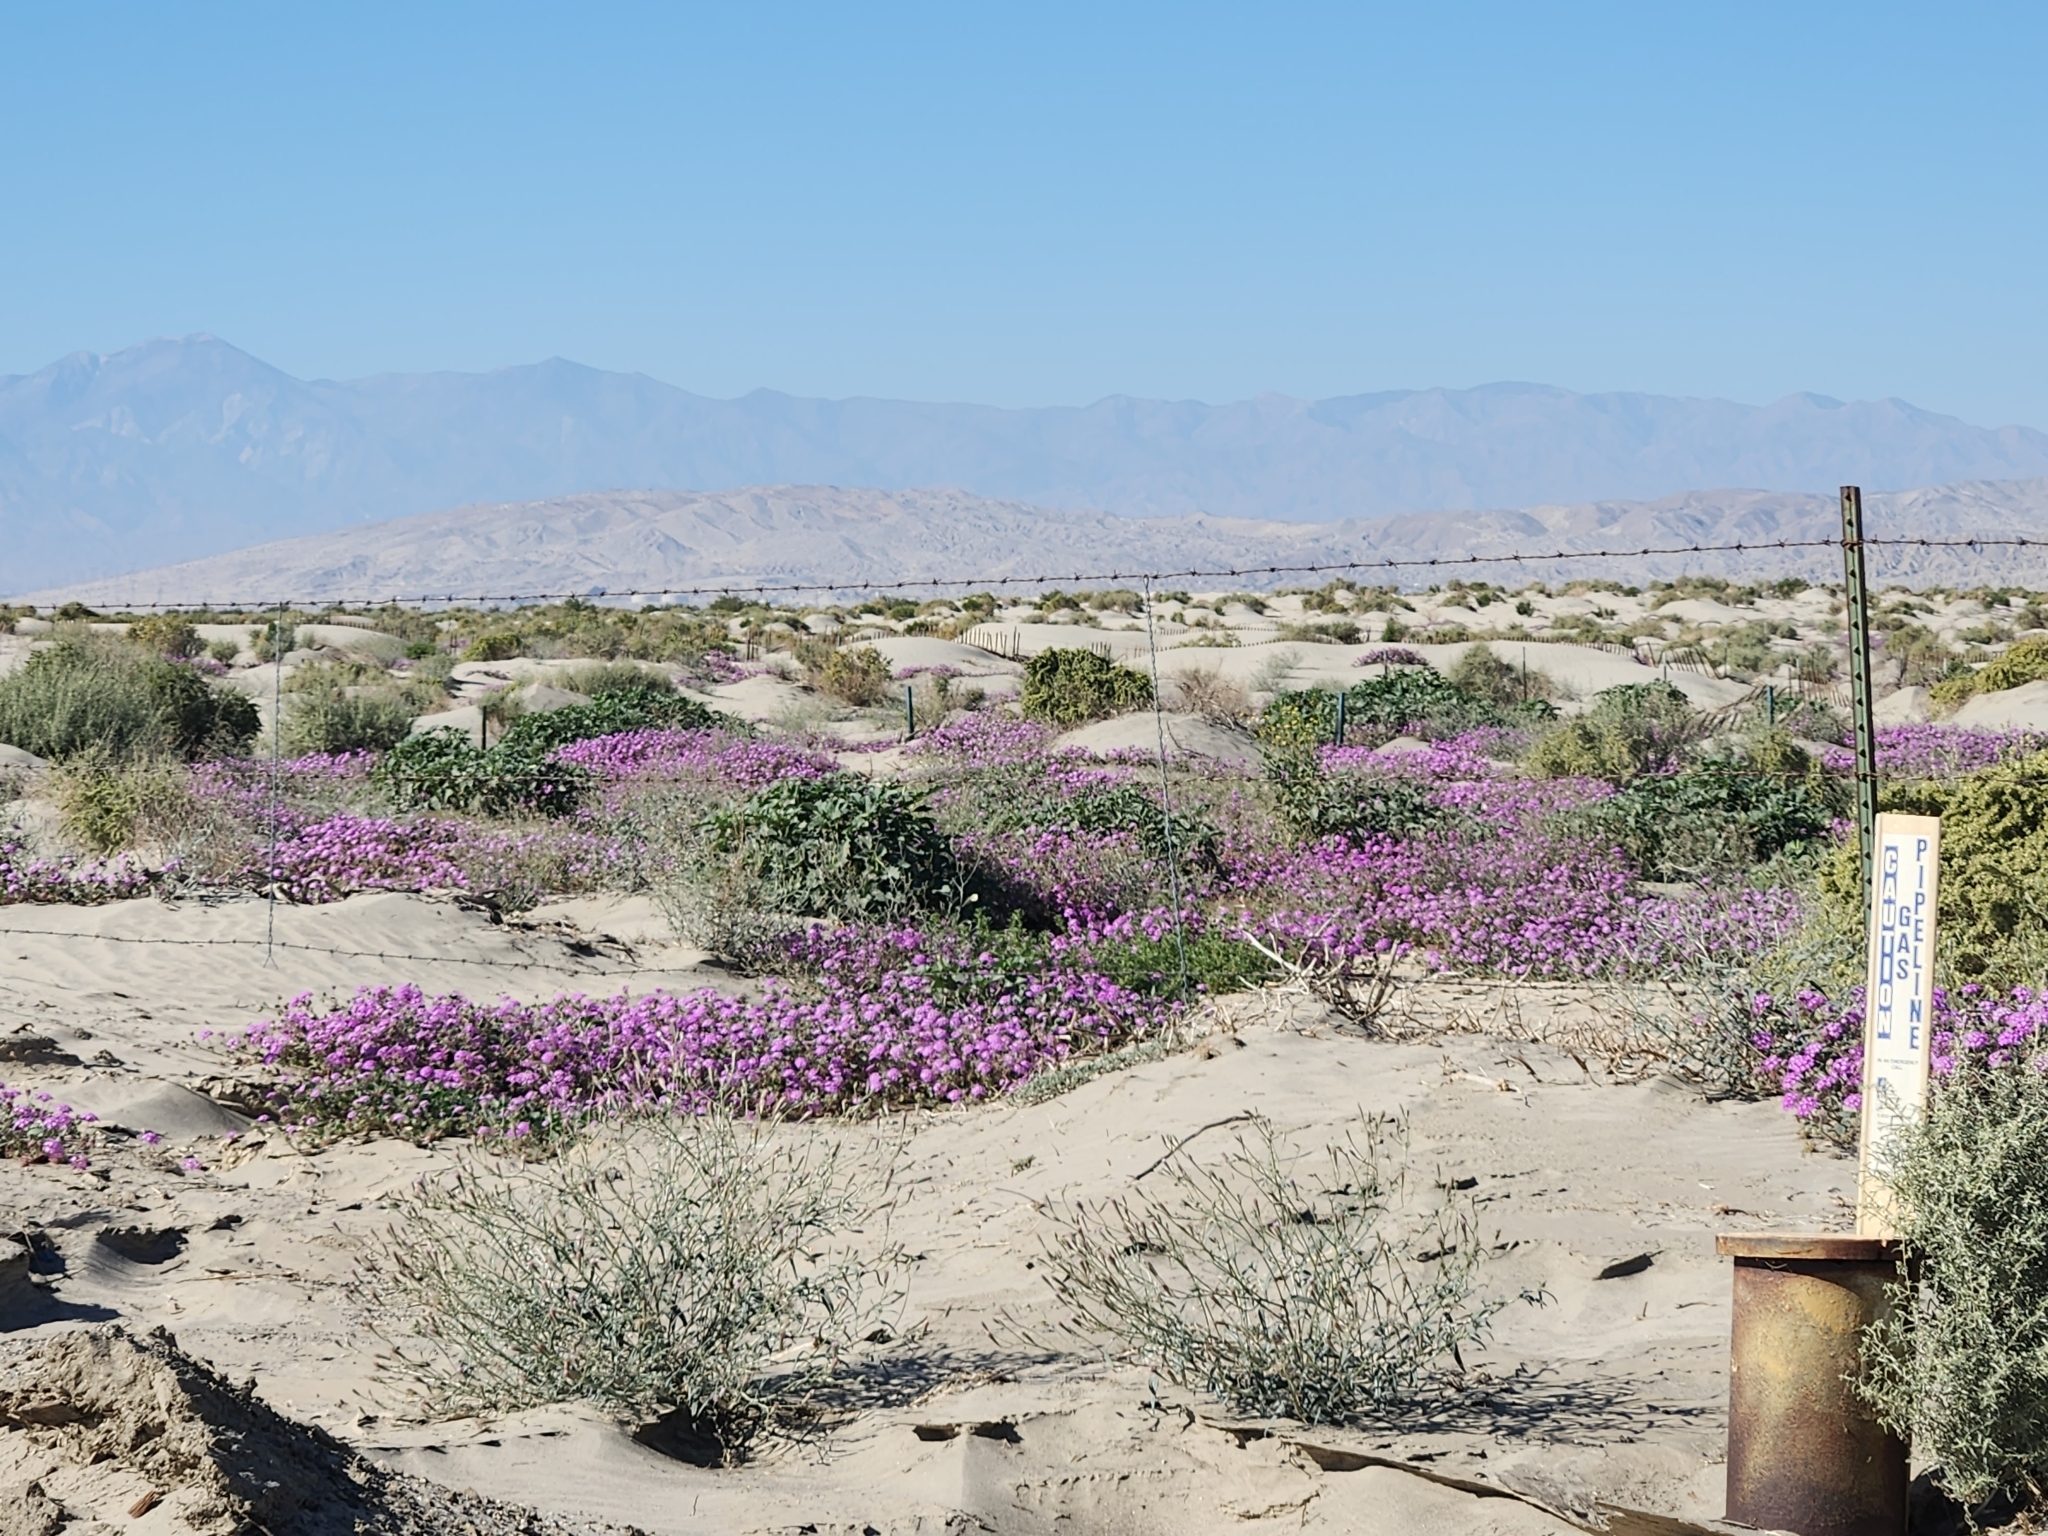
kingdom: Plantae
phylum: Tracheophyta
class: Magnoliopsida
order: Caryophyllales
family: Nyctaginaceae
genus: Abronia
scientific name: Abronia villosa
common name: Desert sand-verbena
